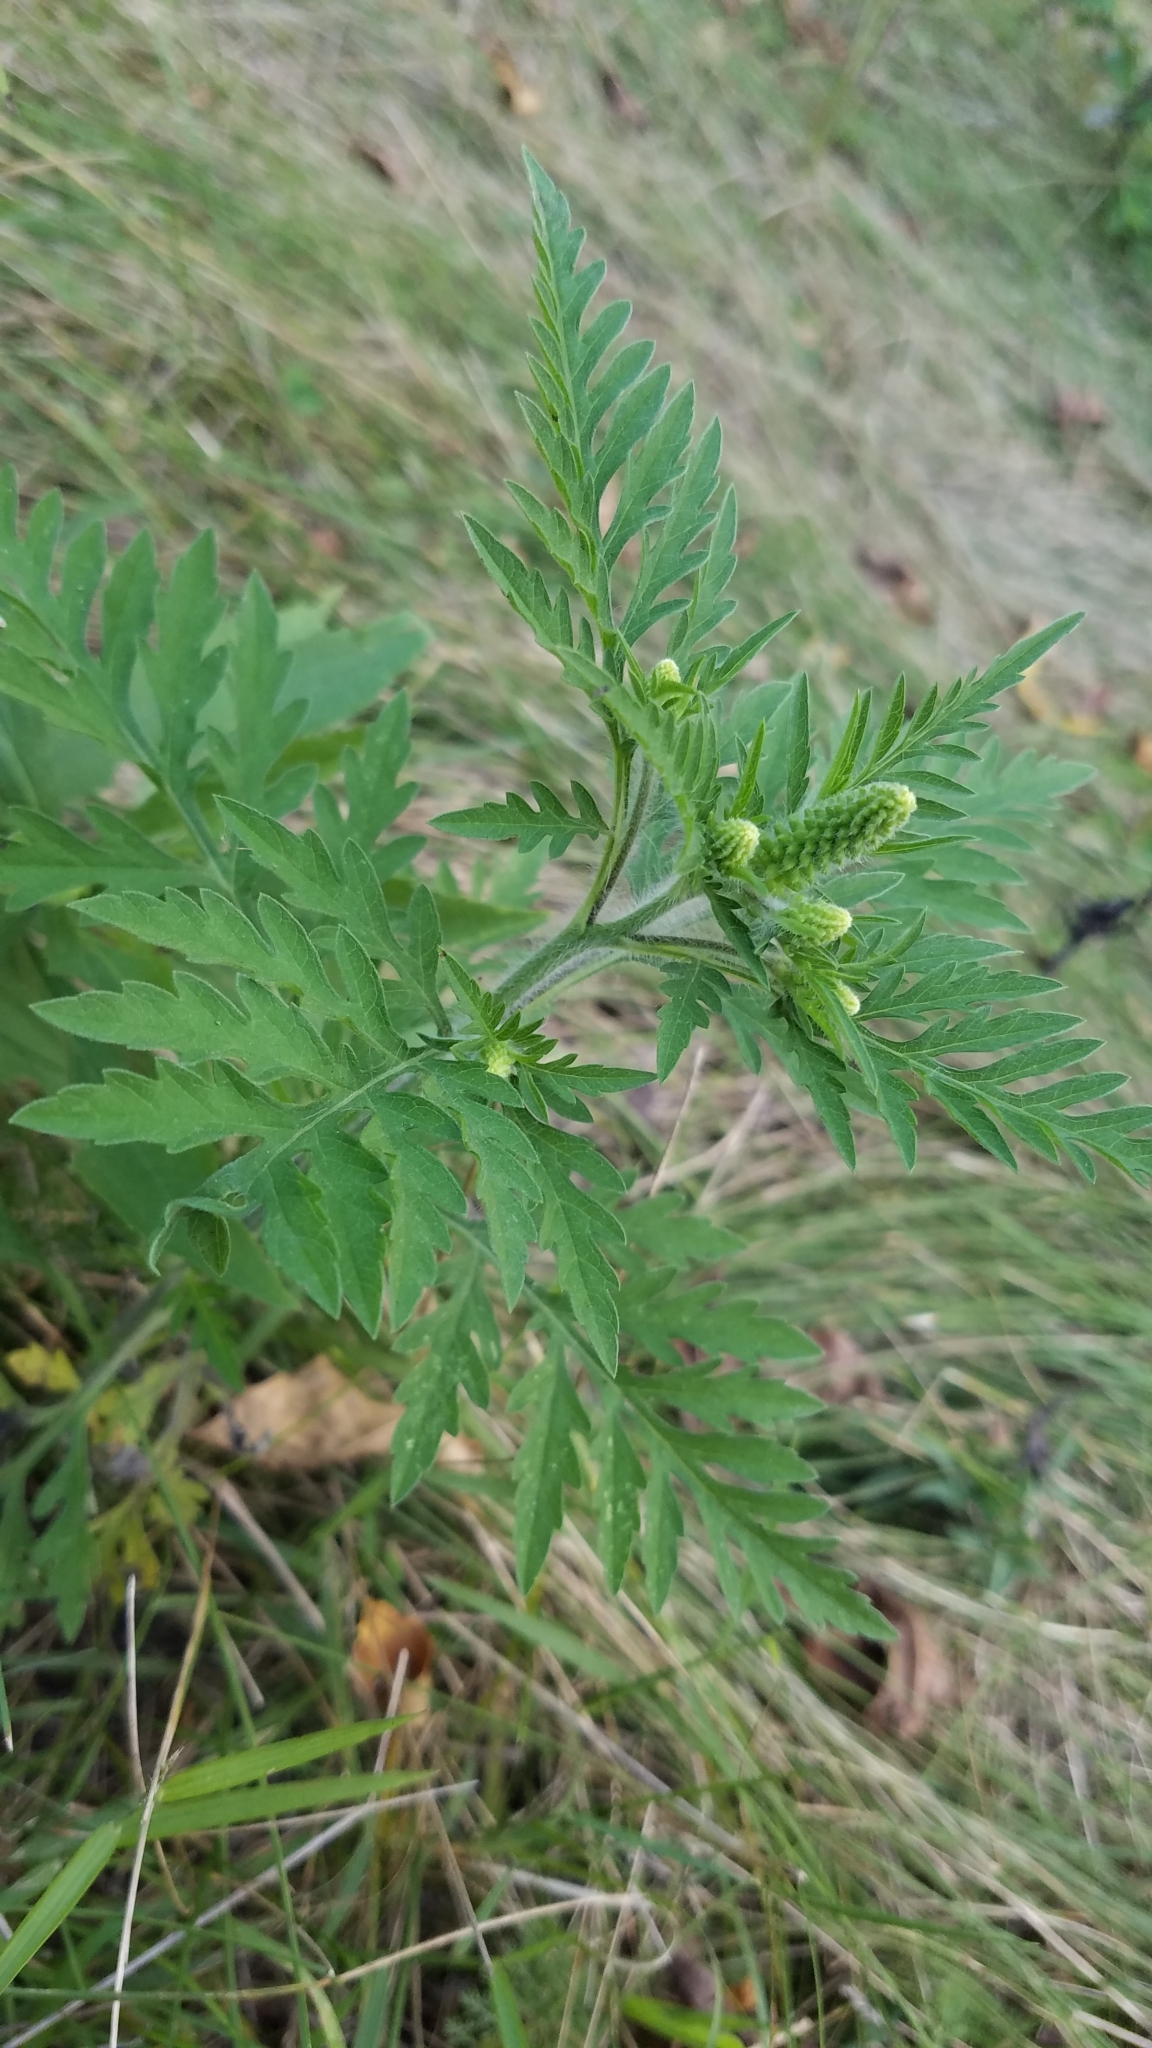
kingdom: Plantae
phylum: Tracheophyta
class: Magnoliopsida
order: Asterales
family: Asteraceae
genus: Ambrosia
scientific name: Ambrosia artemisiifolia
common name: Annual ragweed
